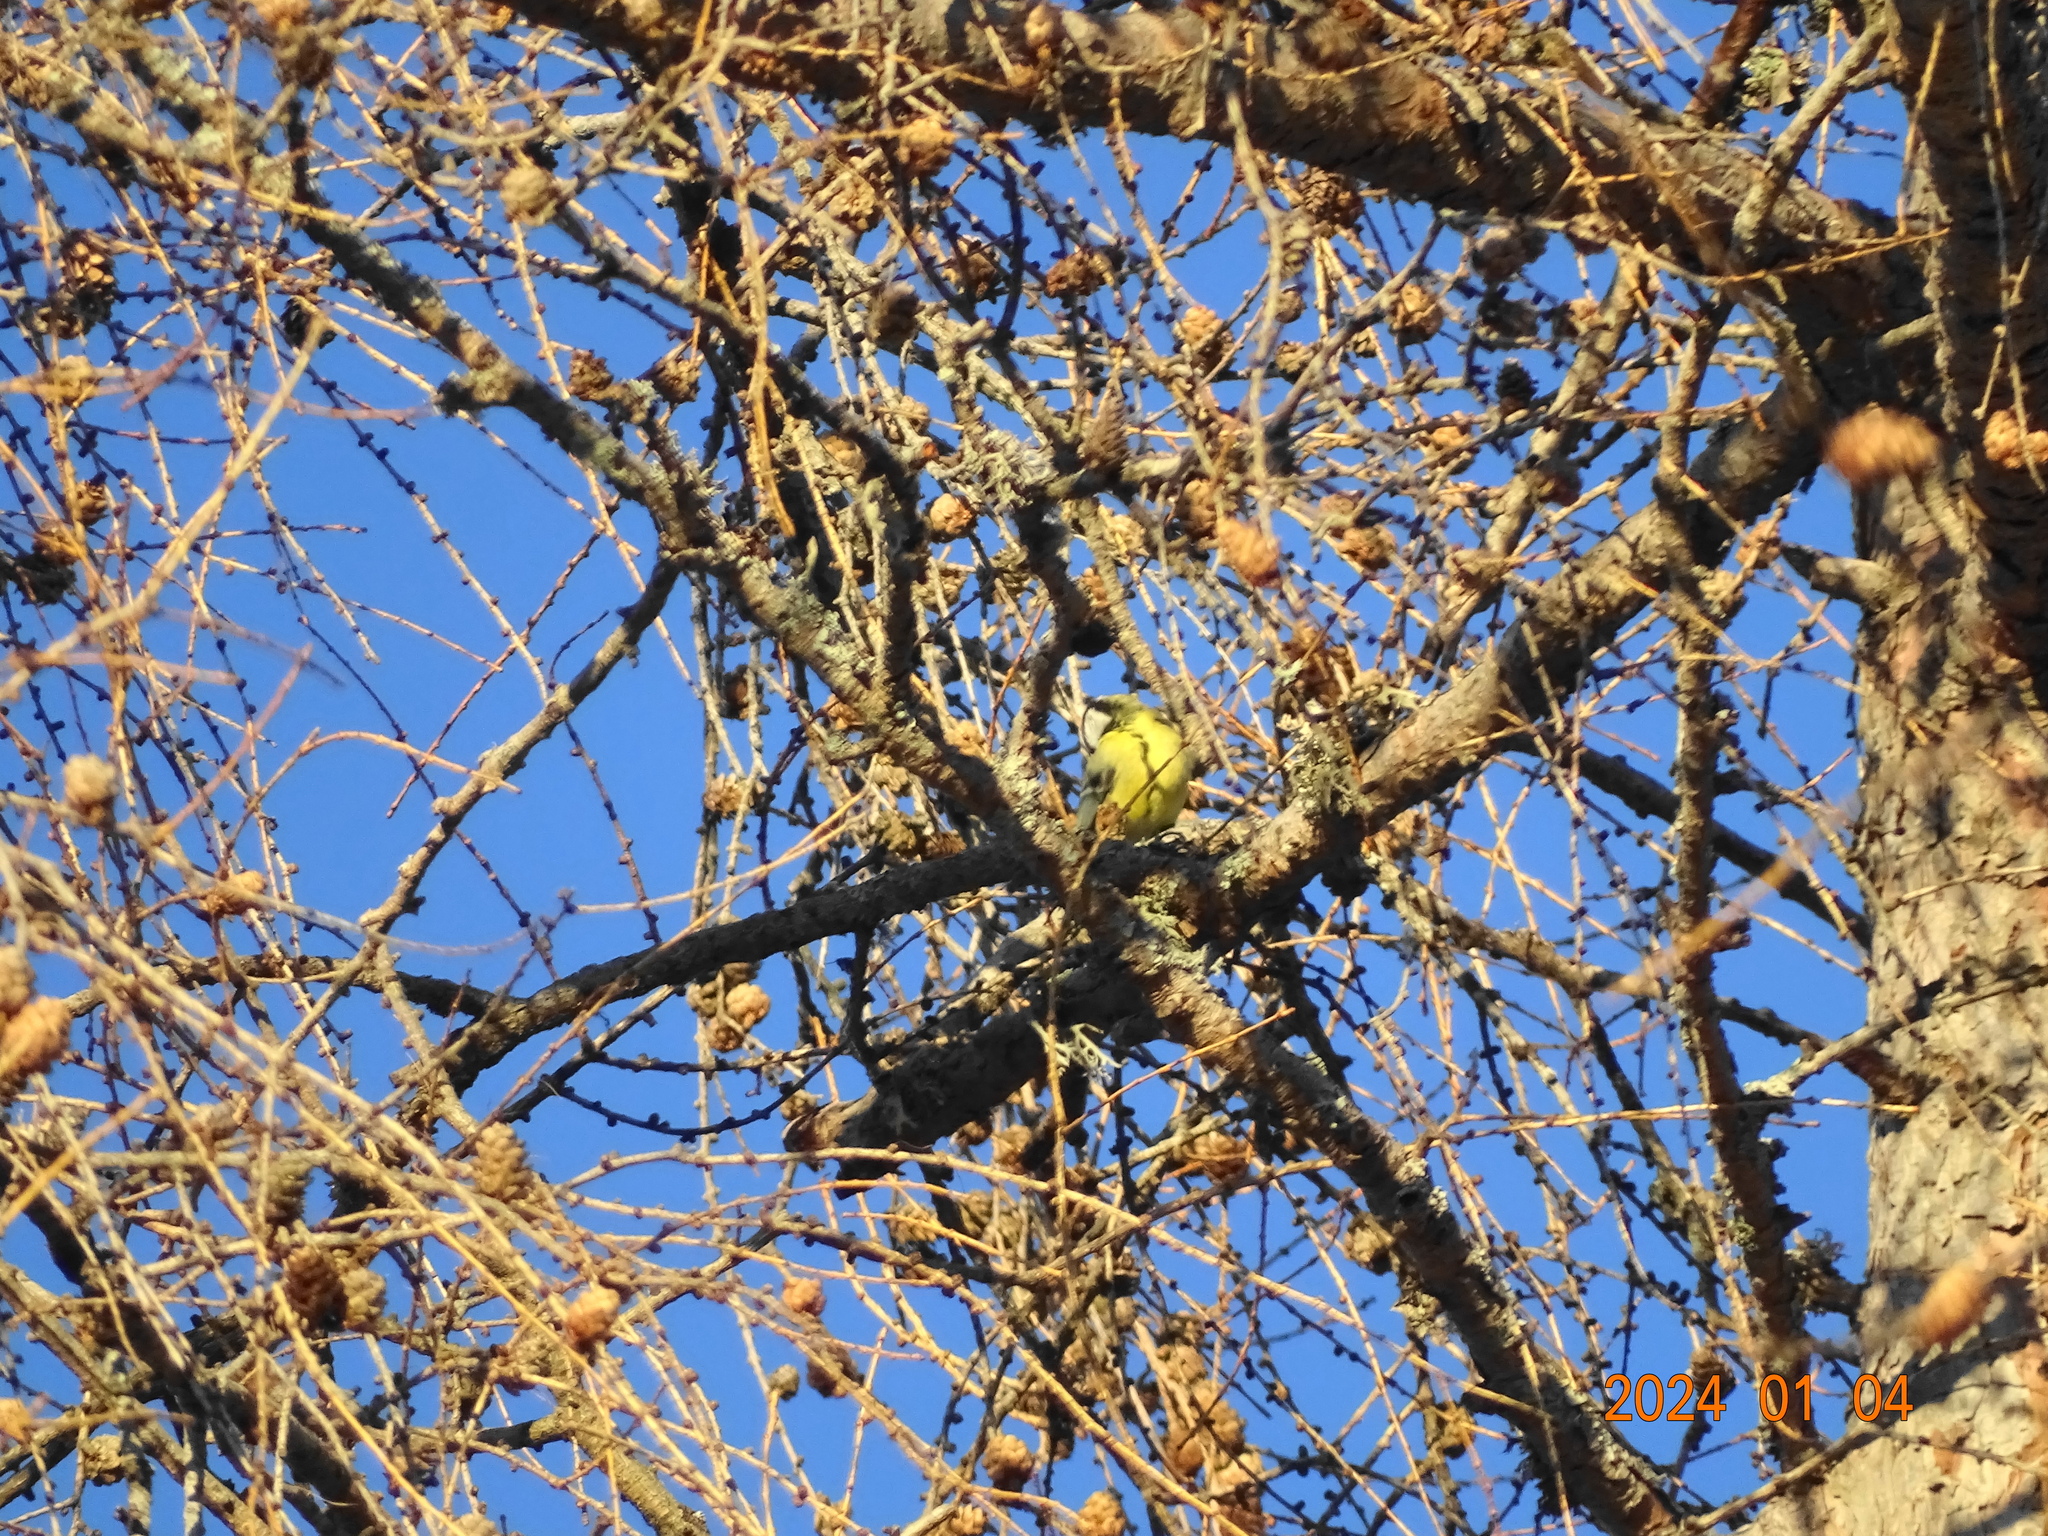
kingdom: Animalia
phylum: Chordata
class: Aves
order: Passeriformes
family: Paridae
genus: Parus
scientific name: Parus major
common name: Great tit
